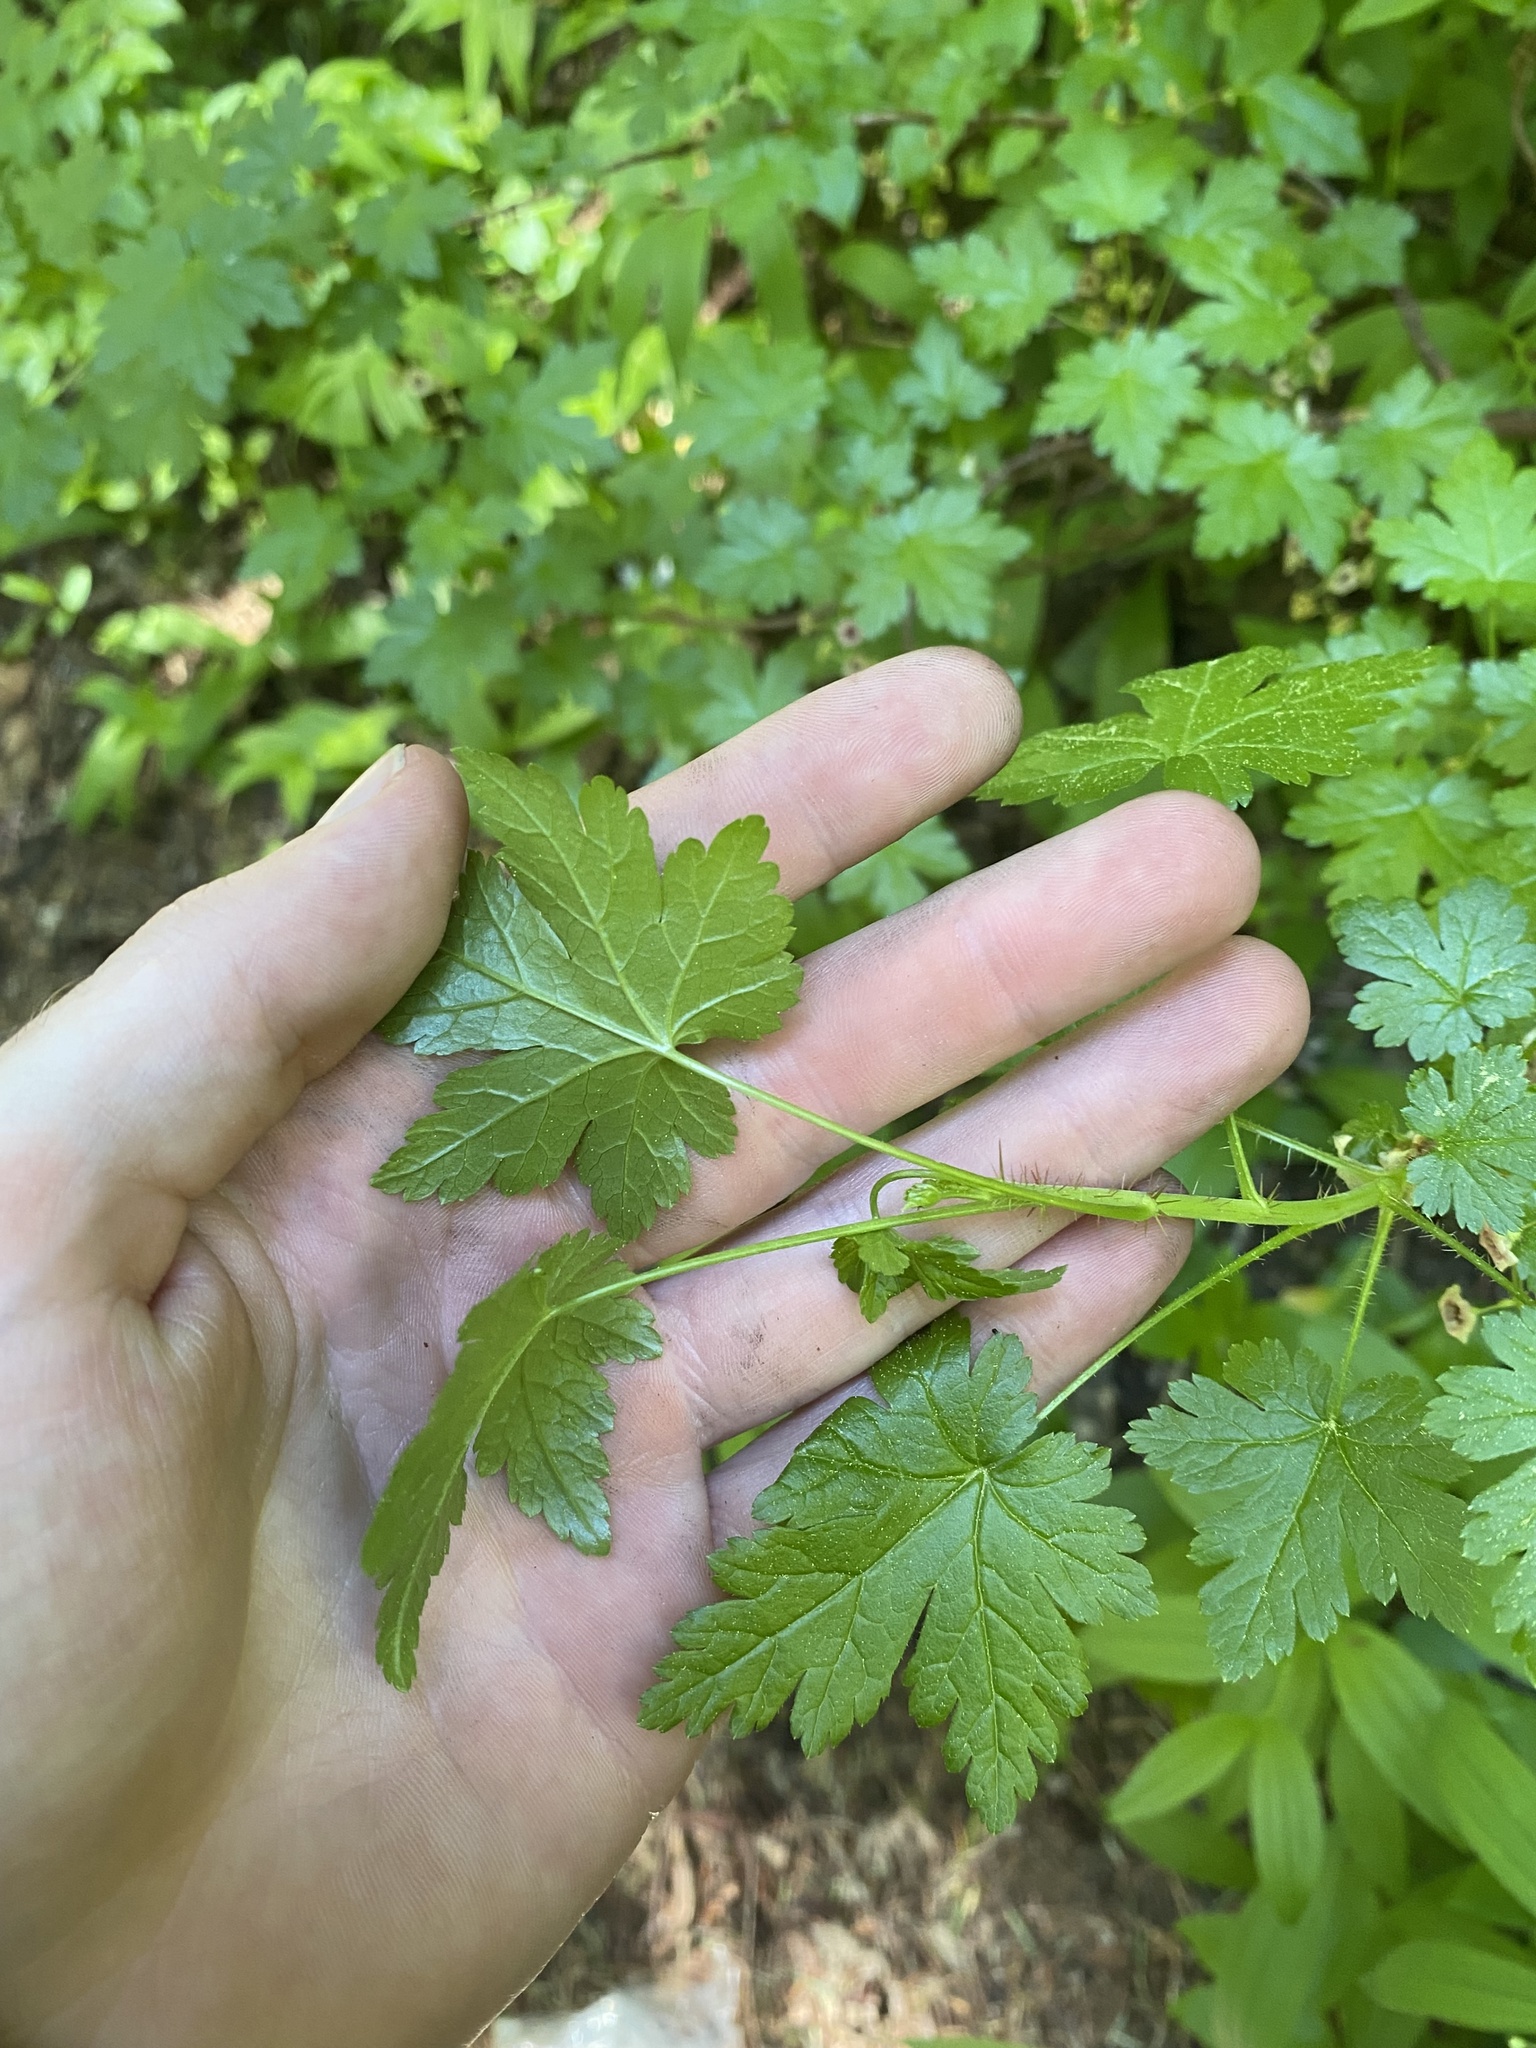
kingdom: Plantae
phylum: Tracheophyta
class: Magnoliopsida
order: Saxifragales
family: Grossulariaceae
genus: Ribes
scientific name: Ribes lacustre
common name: Black gooseberry
